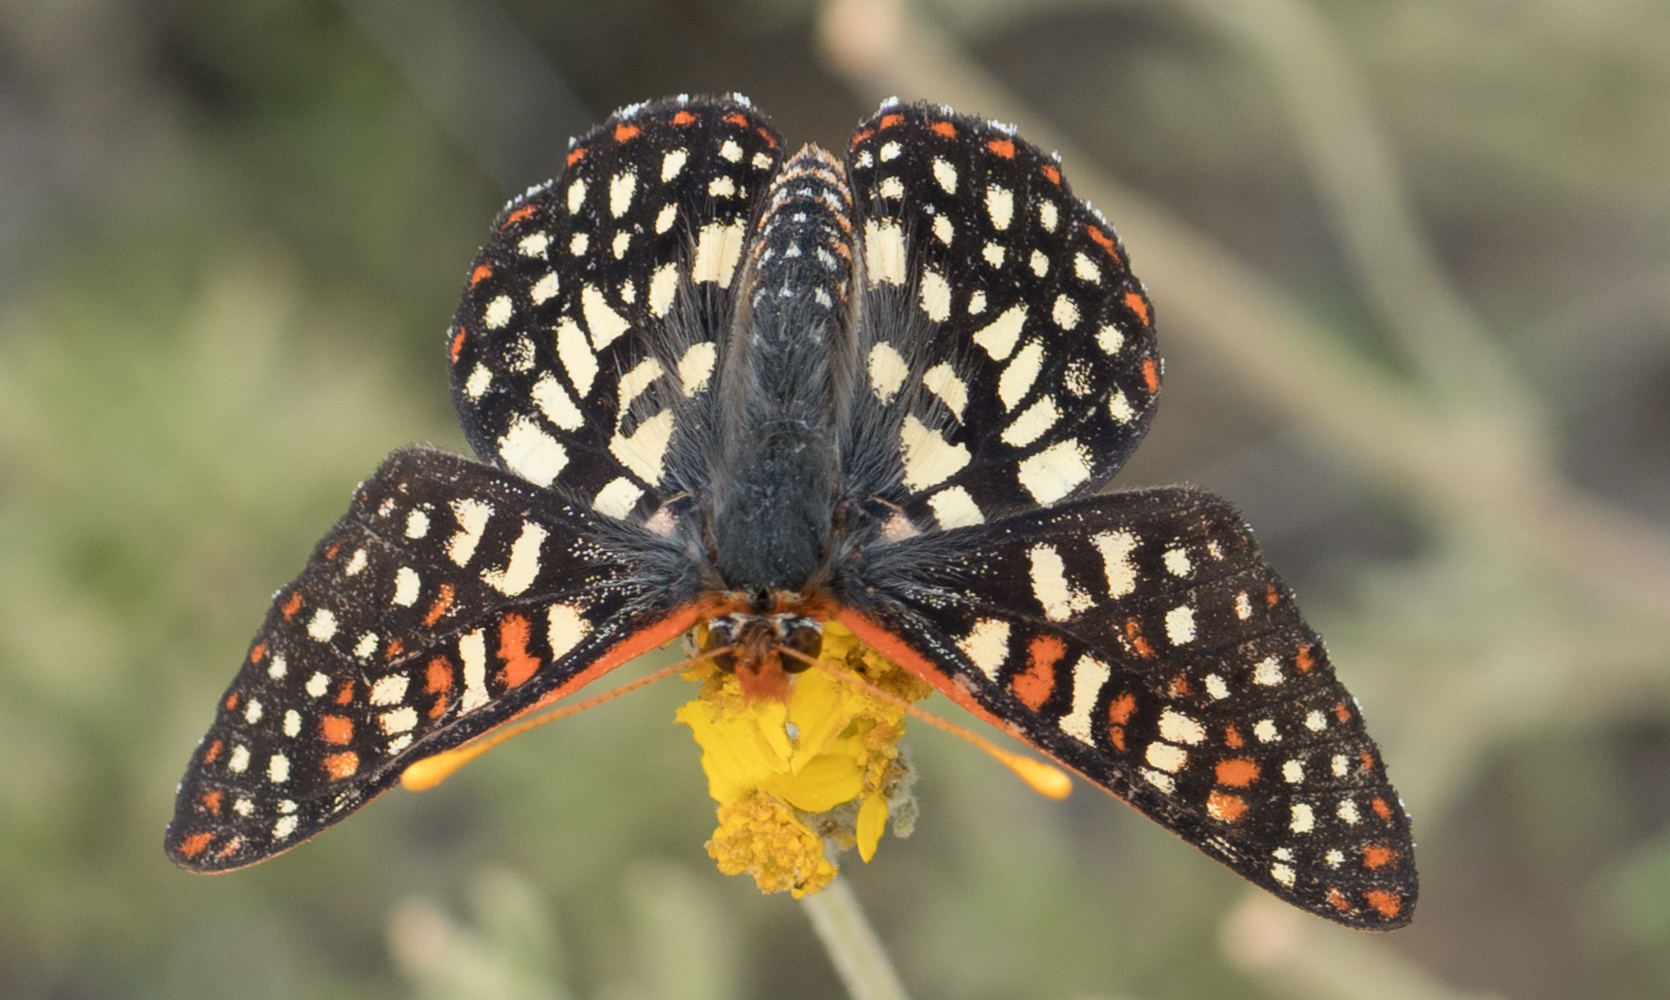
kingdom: Animalia
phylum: Arthropoda
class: Insecta
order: Lepidoptera
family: Nymphalidae
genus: Occidryas
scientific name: Occidryas chalcedona
